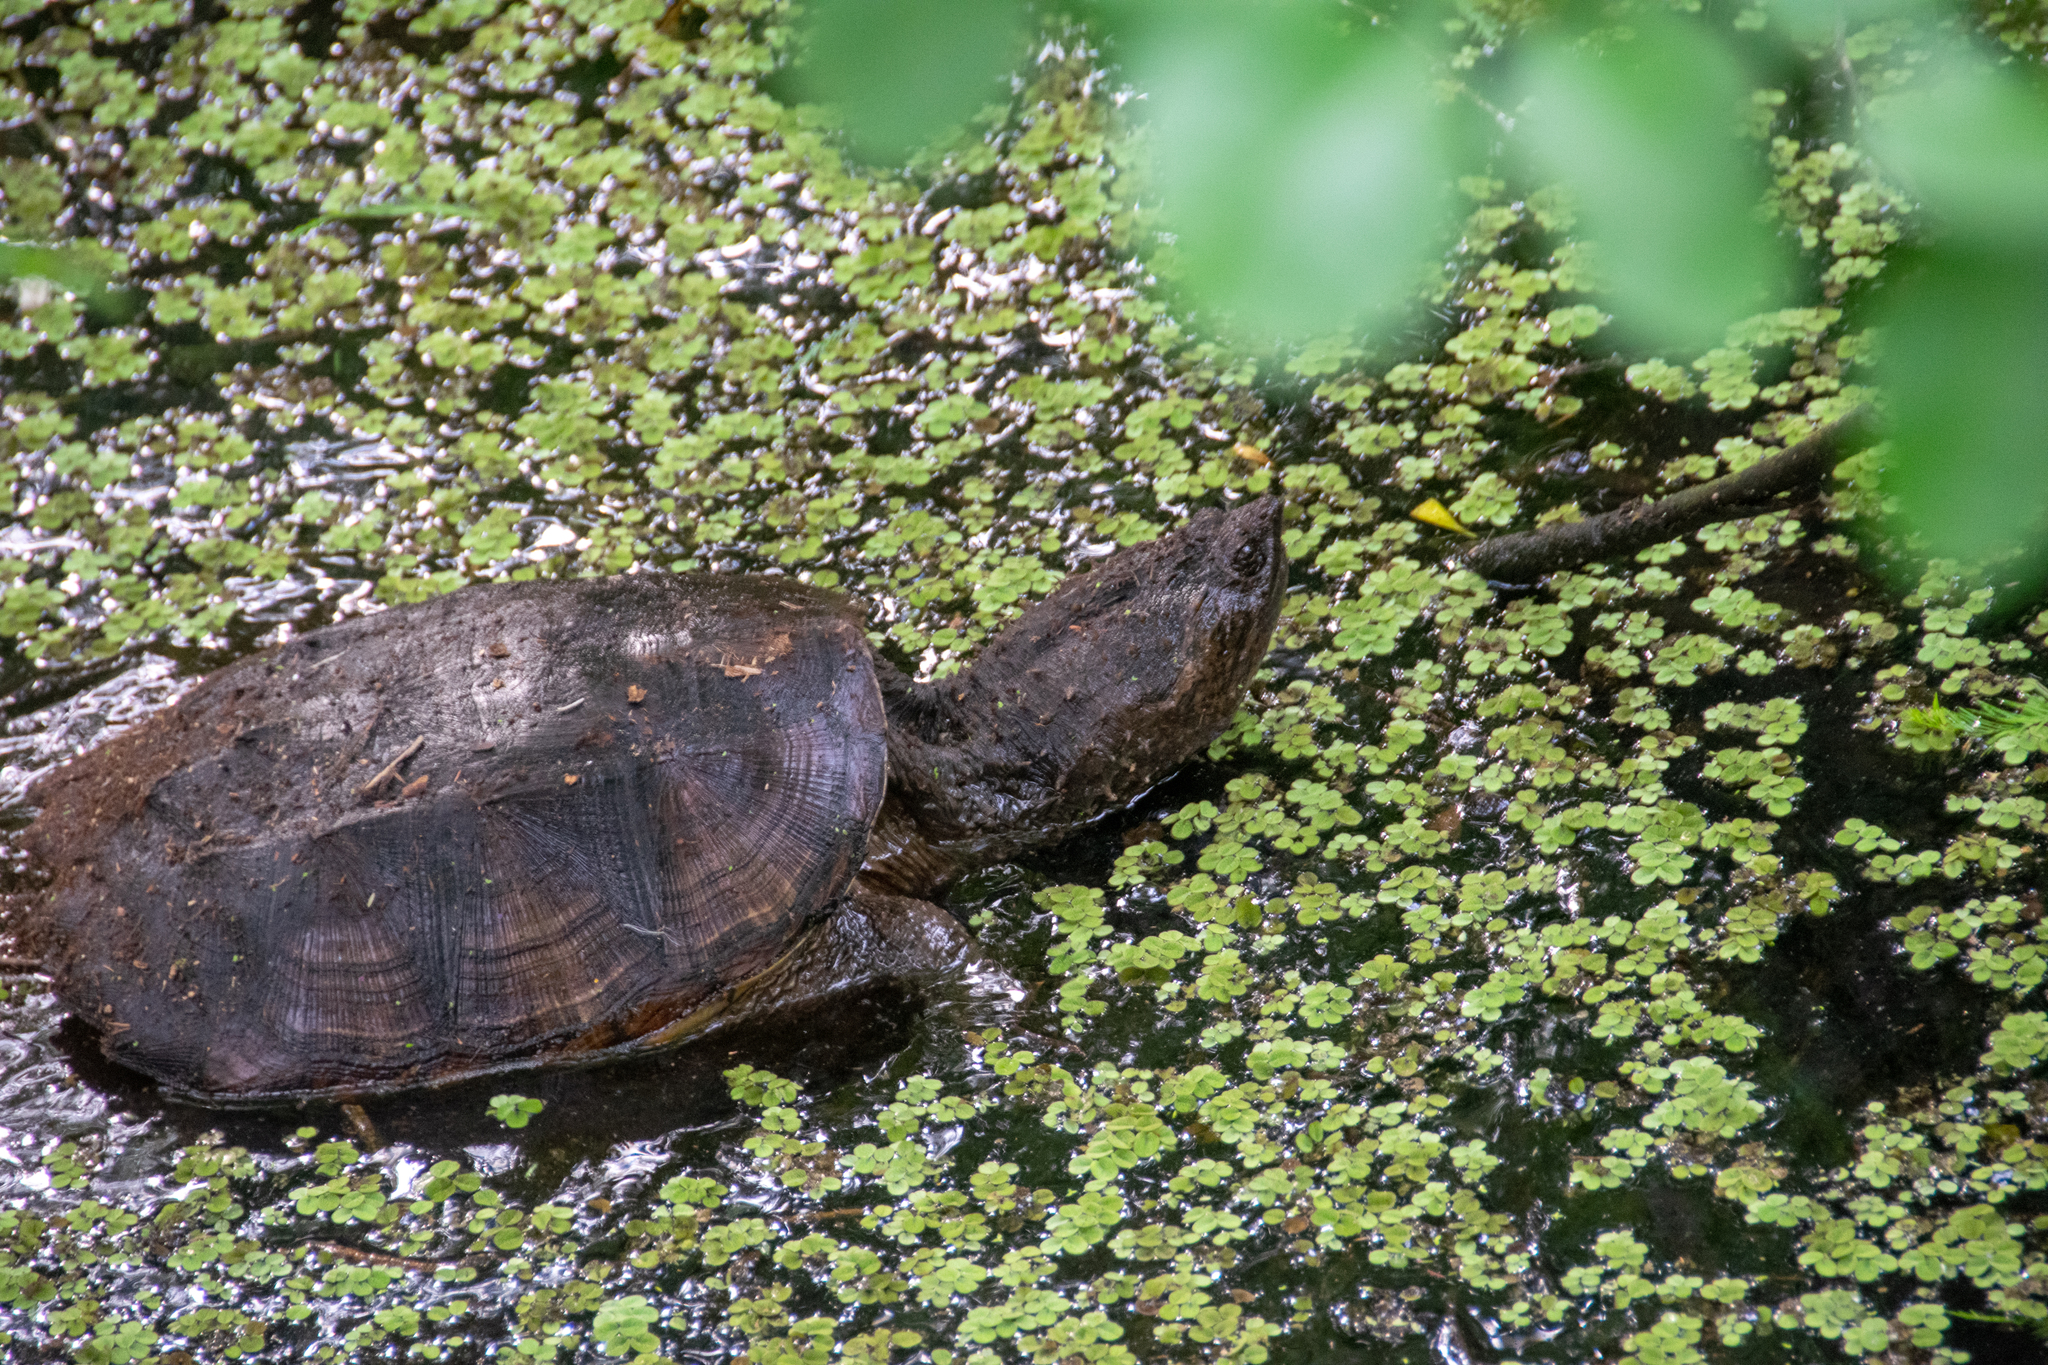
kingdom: Animalia
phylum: Chordata
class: Testudines
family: Chelydridae
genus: Chelydra
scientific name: Chelydra serpentina
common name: Common snapping turtle
